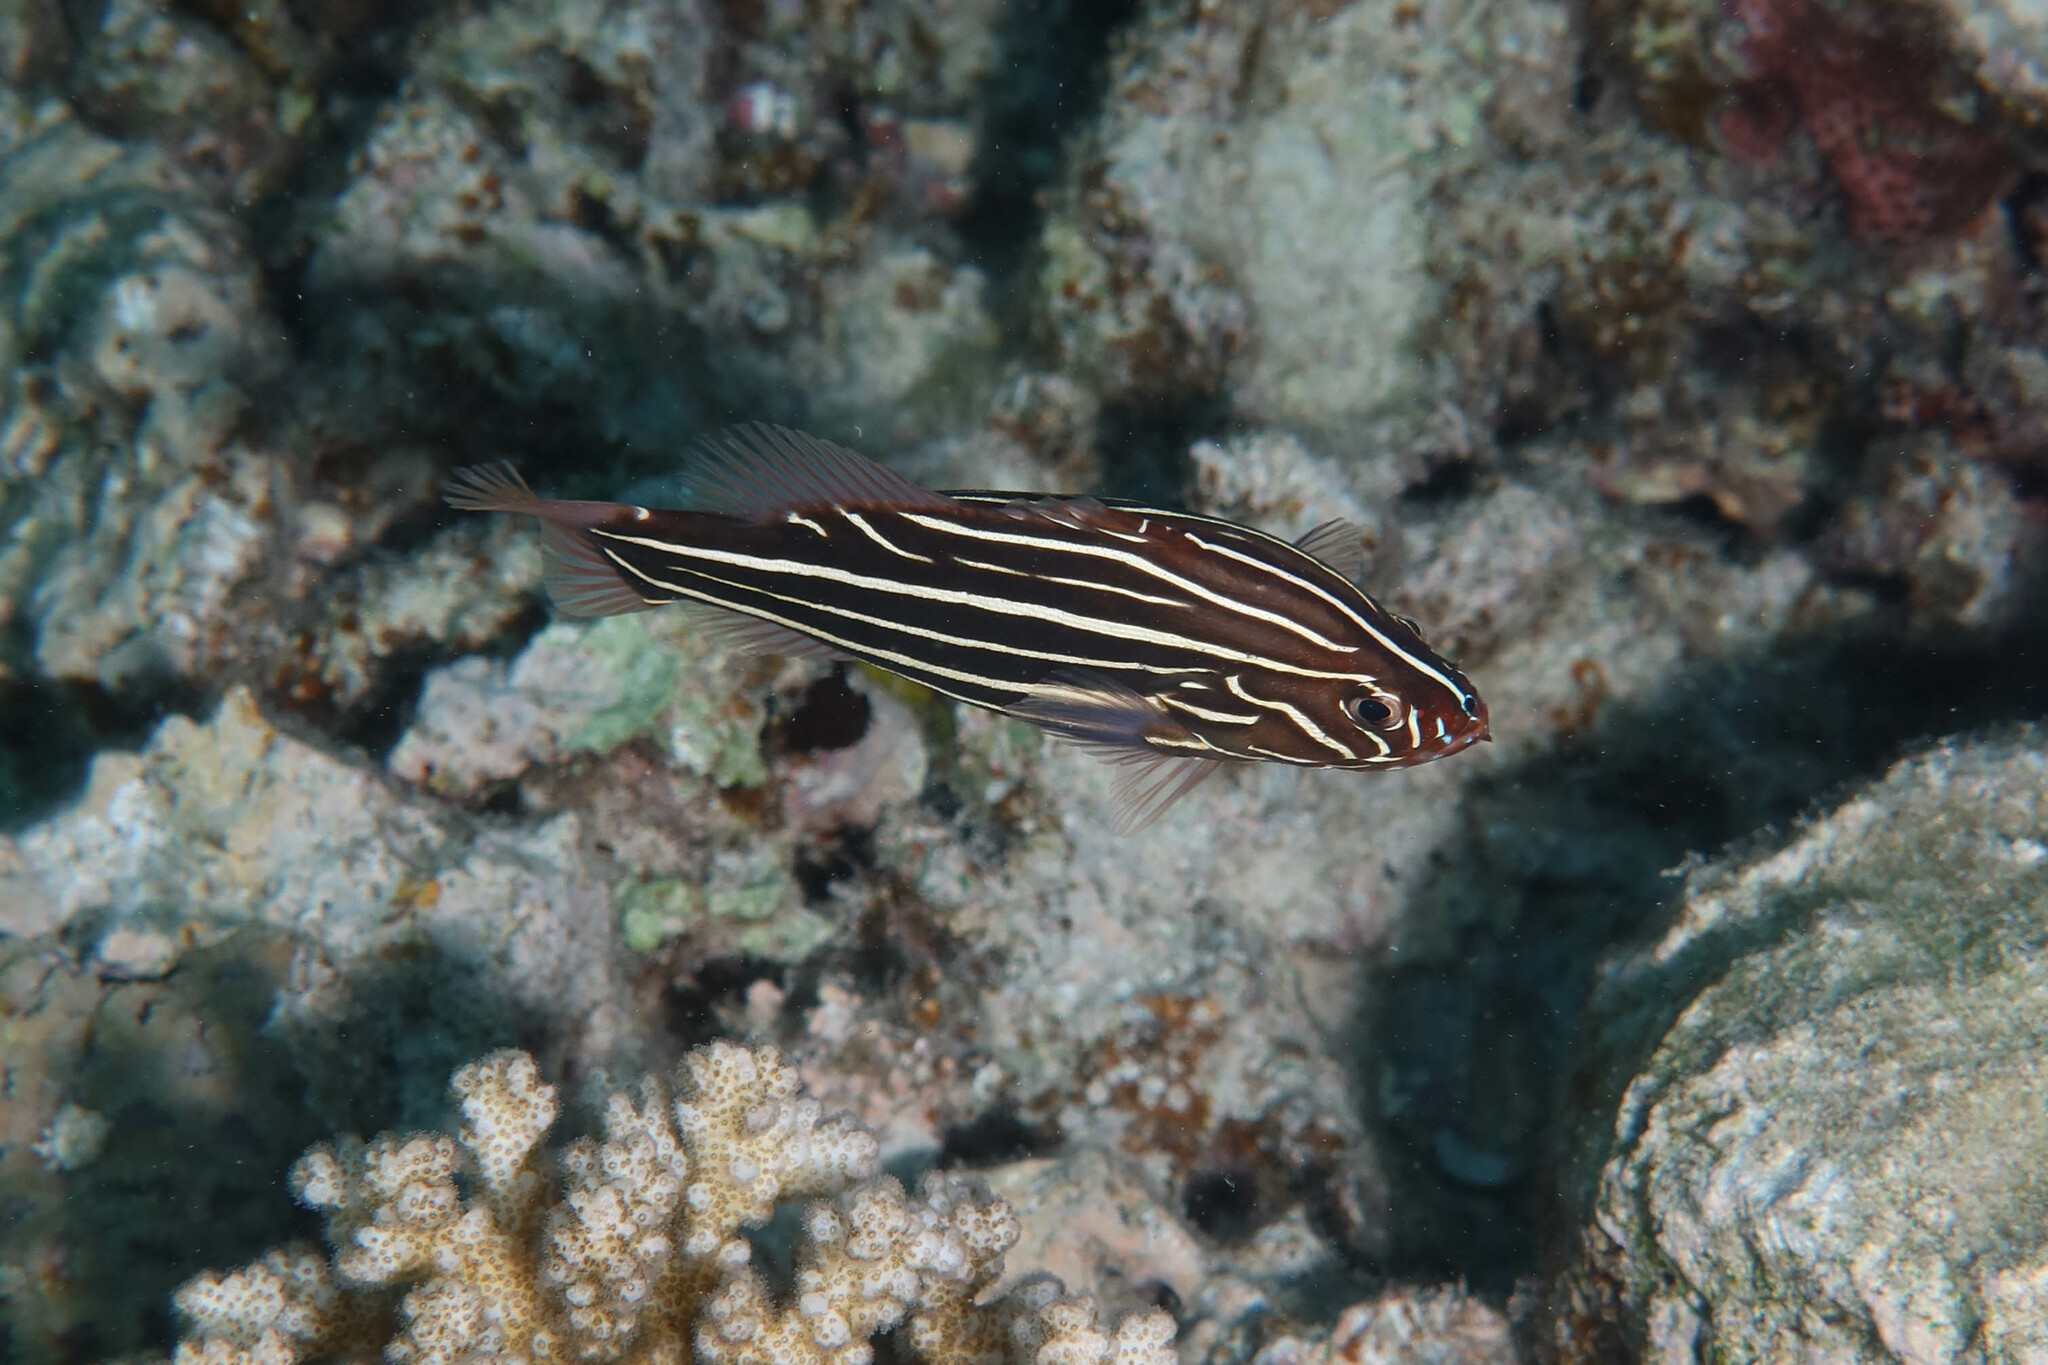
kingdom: Animalia
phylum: Chordata
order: Perciformes
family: Serranidae
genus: Grammistes
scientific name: Grammistes sexlineatus
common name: Sixline soapfish
